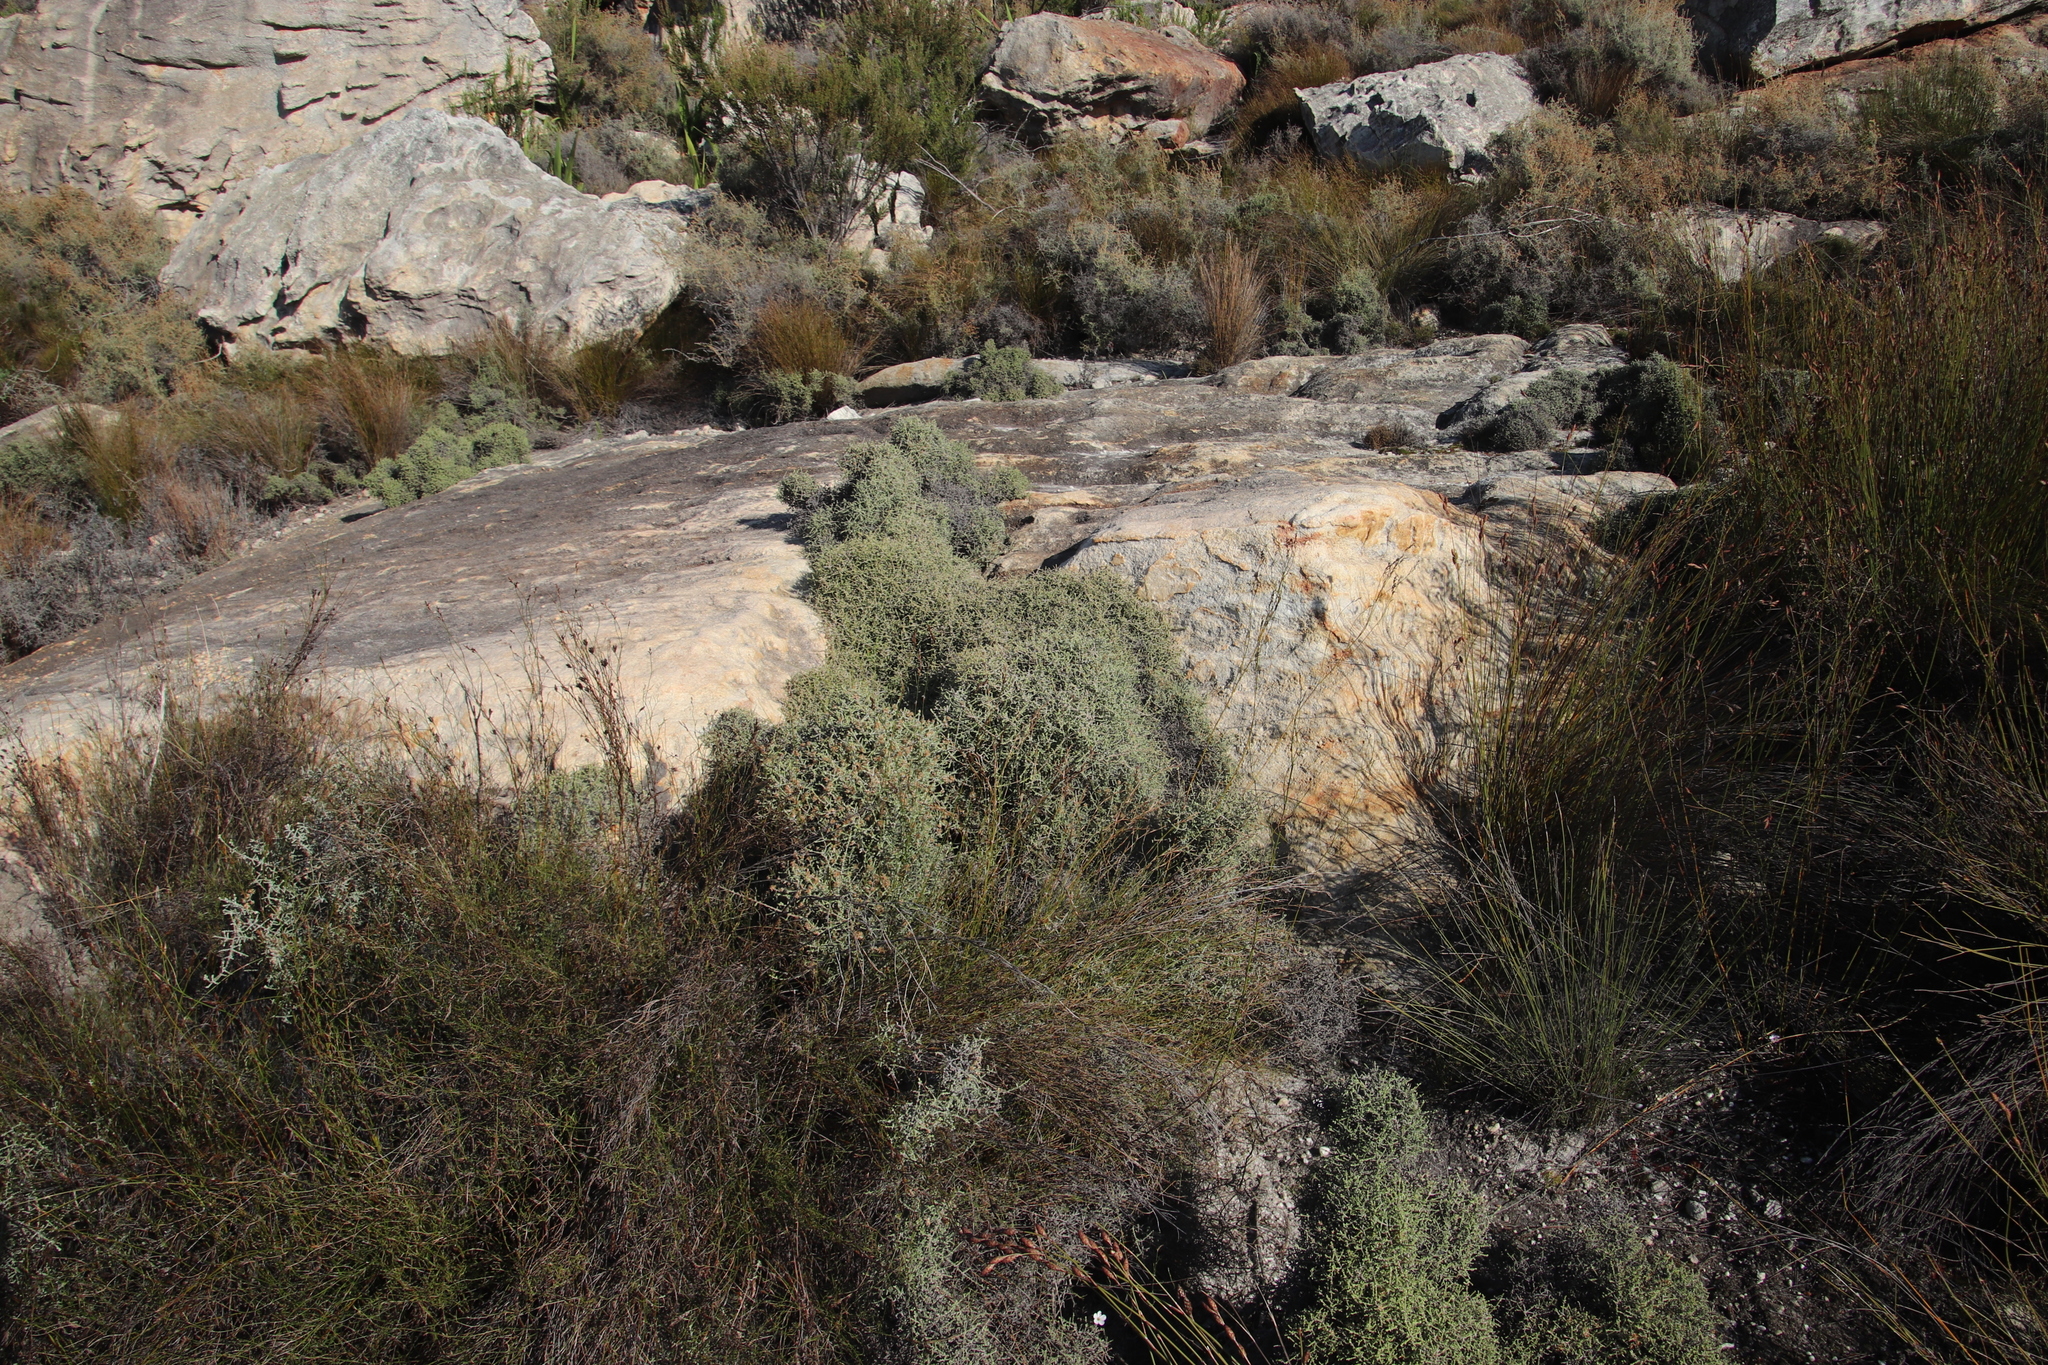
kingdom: Plantae
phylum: Tracheophyta
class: Magnoliopsida
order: Asterales
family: Asteraceae
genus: Myrovernix
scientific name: Myrovernix intricata
